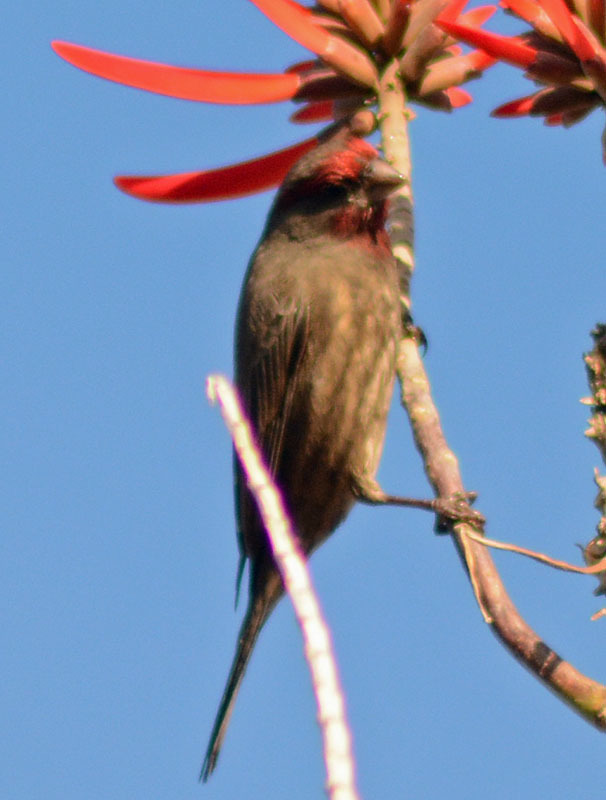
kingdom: Animalia
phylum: Chordata
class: Aves
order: Passeriformes
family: Fringillidae
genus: Haemorhous
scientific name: Haemorhous mexicanus
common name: House finch
